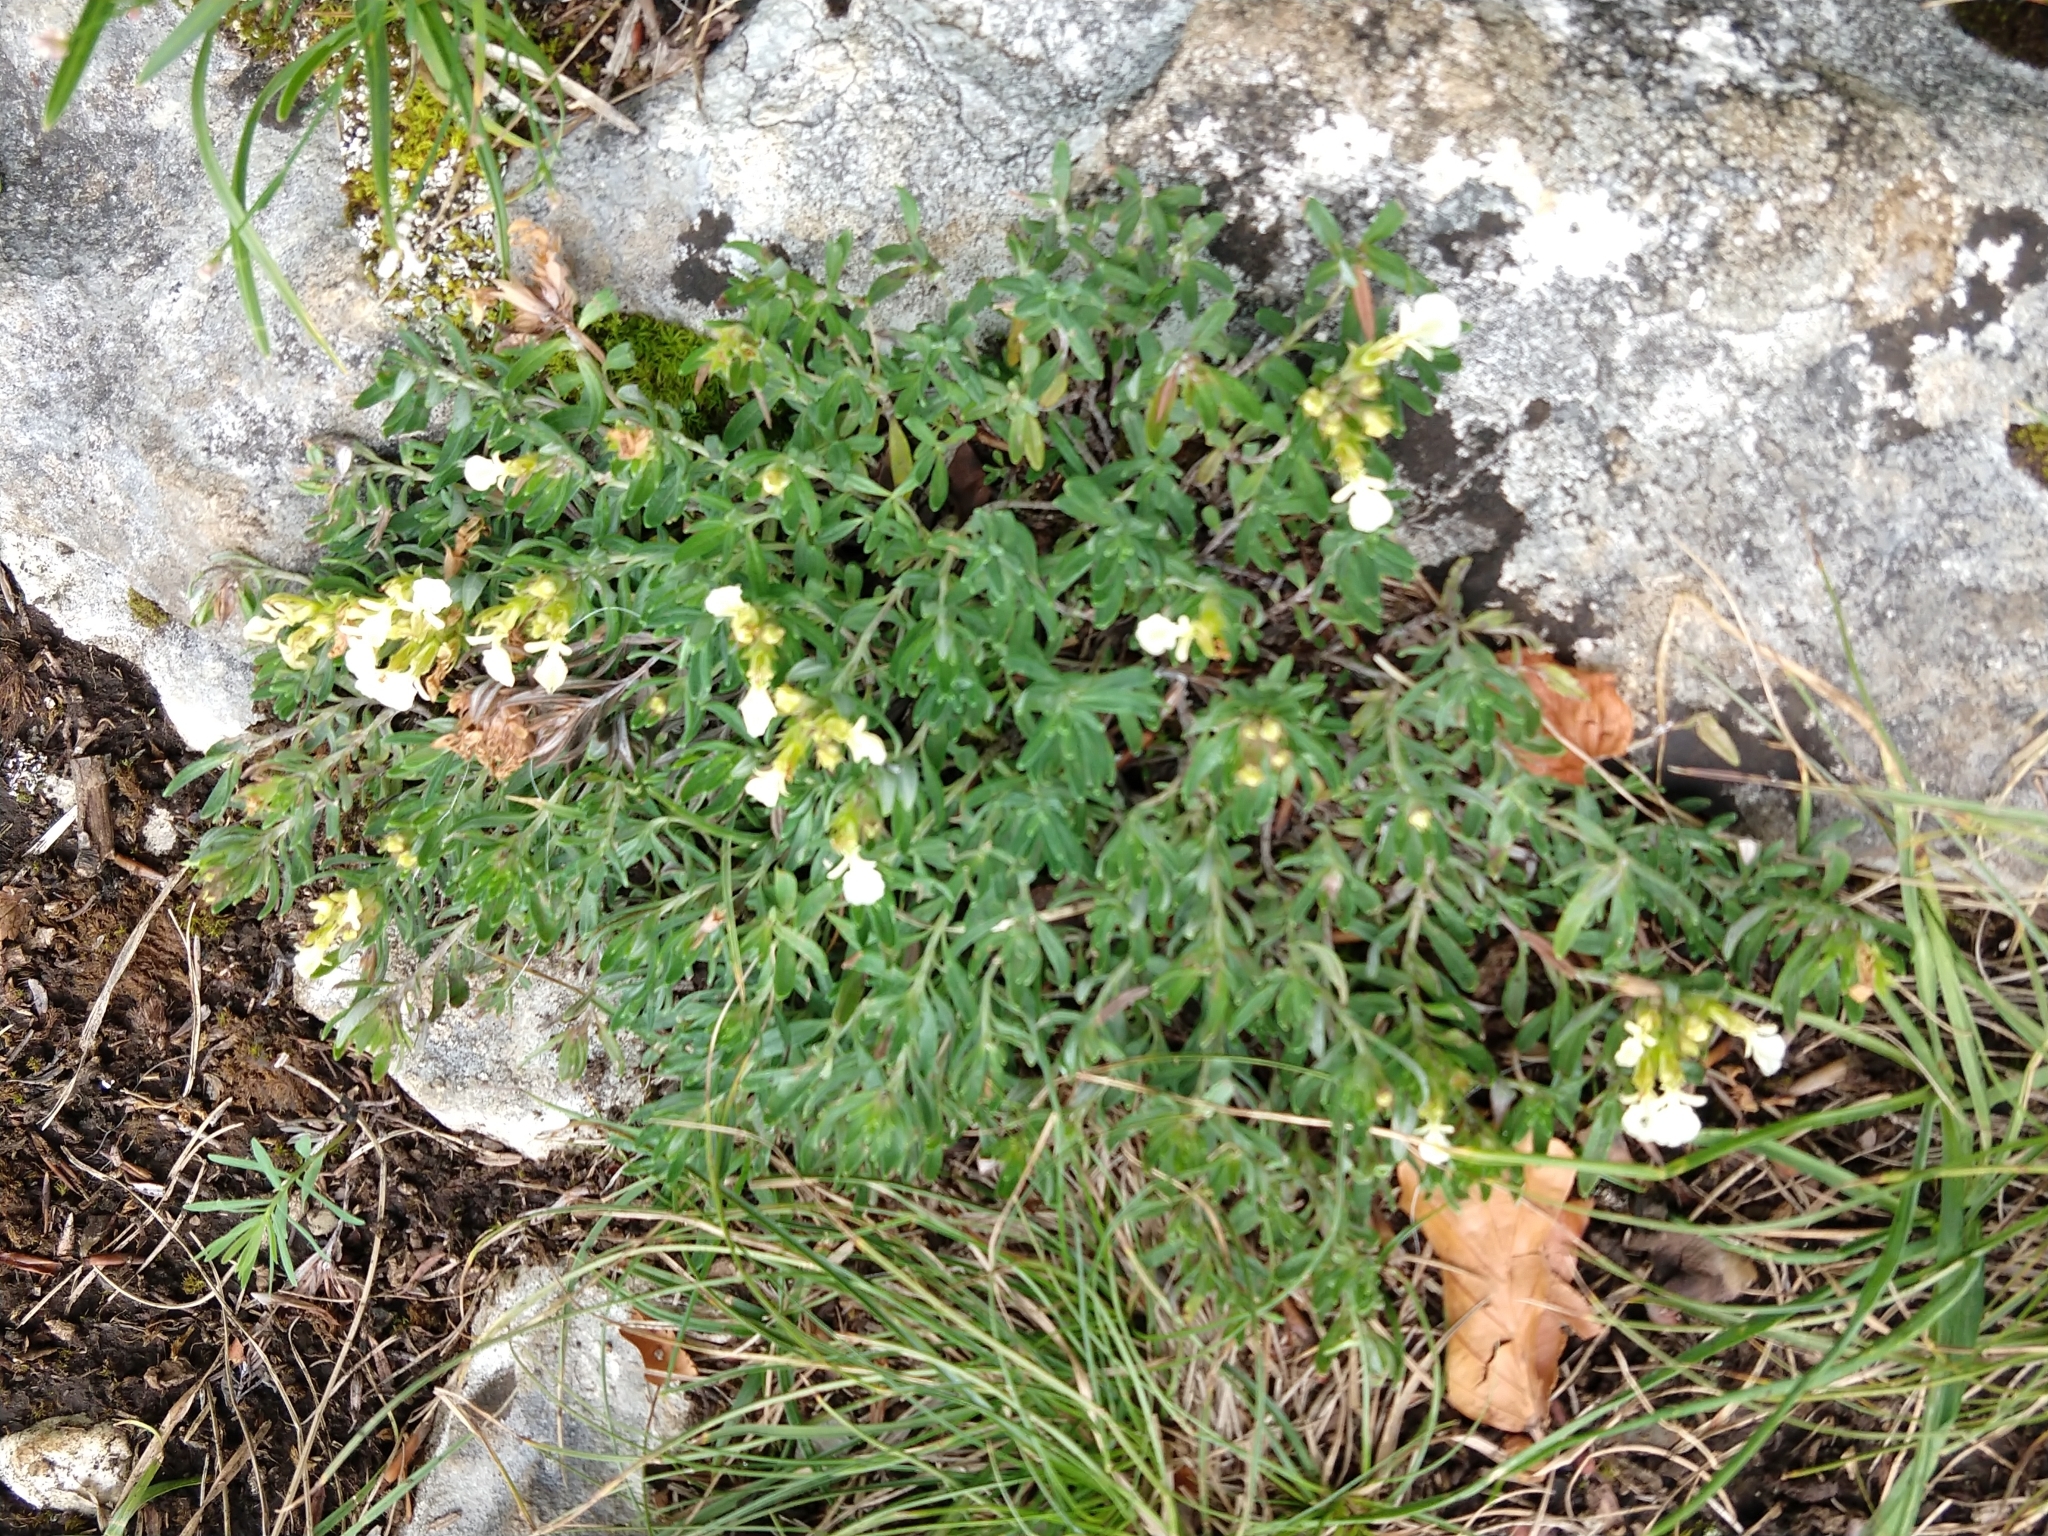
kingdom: Plantae
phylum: Tracheophyta
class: Magnoliopsida
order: Lamiales
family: Lamiaceae
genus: Teucrium
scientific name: Teucrium montanum
